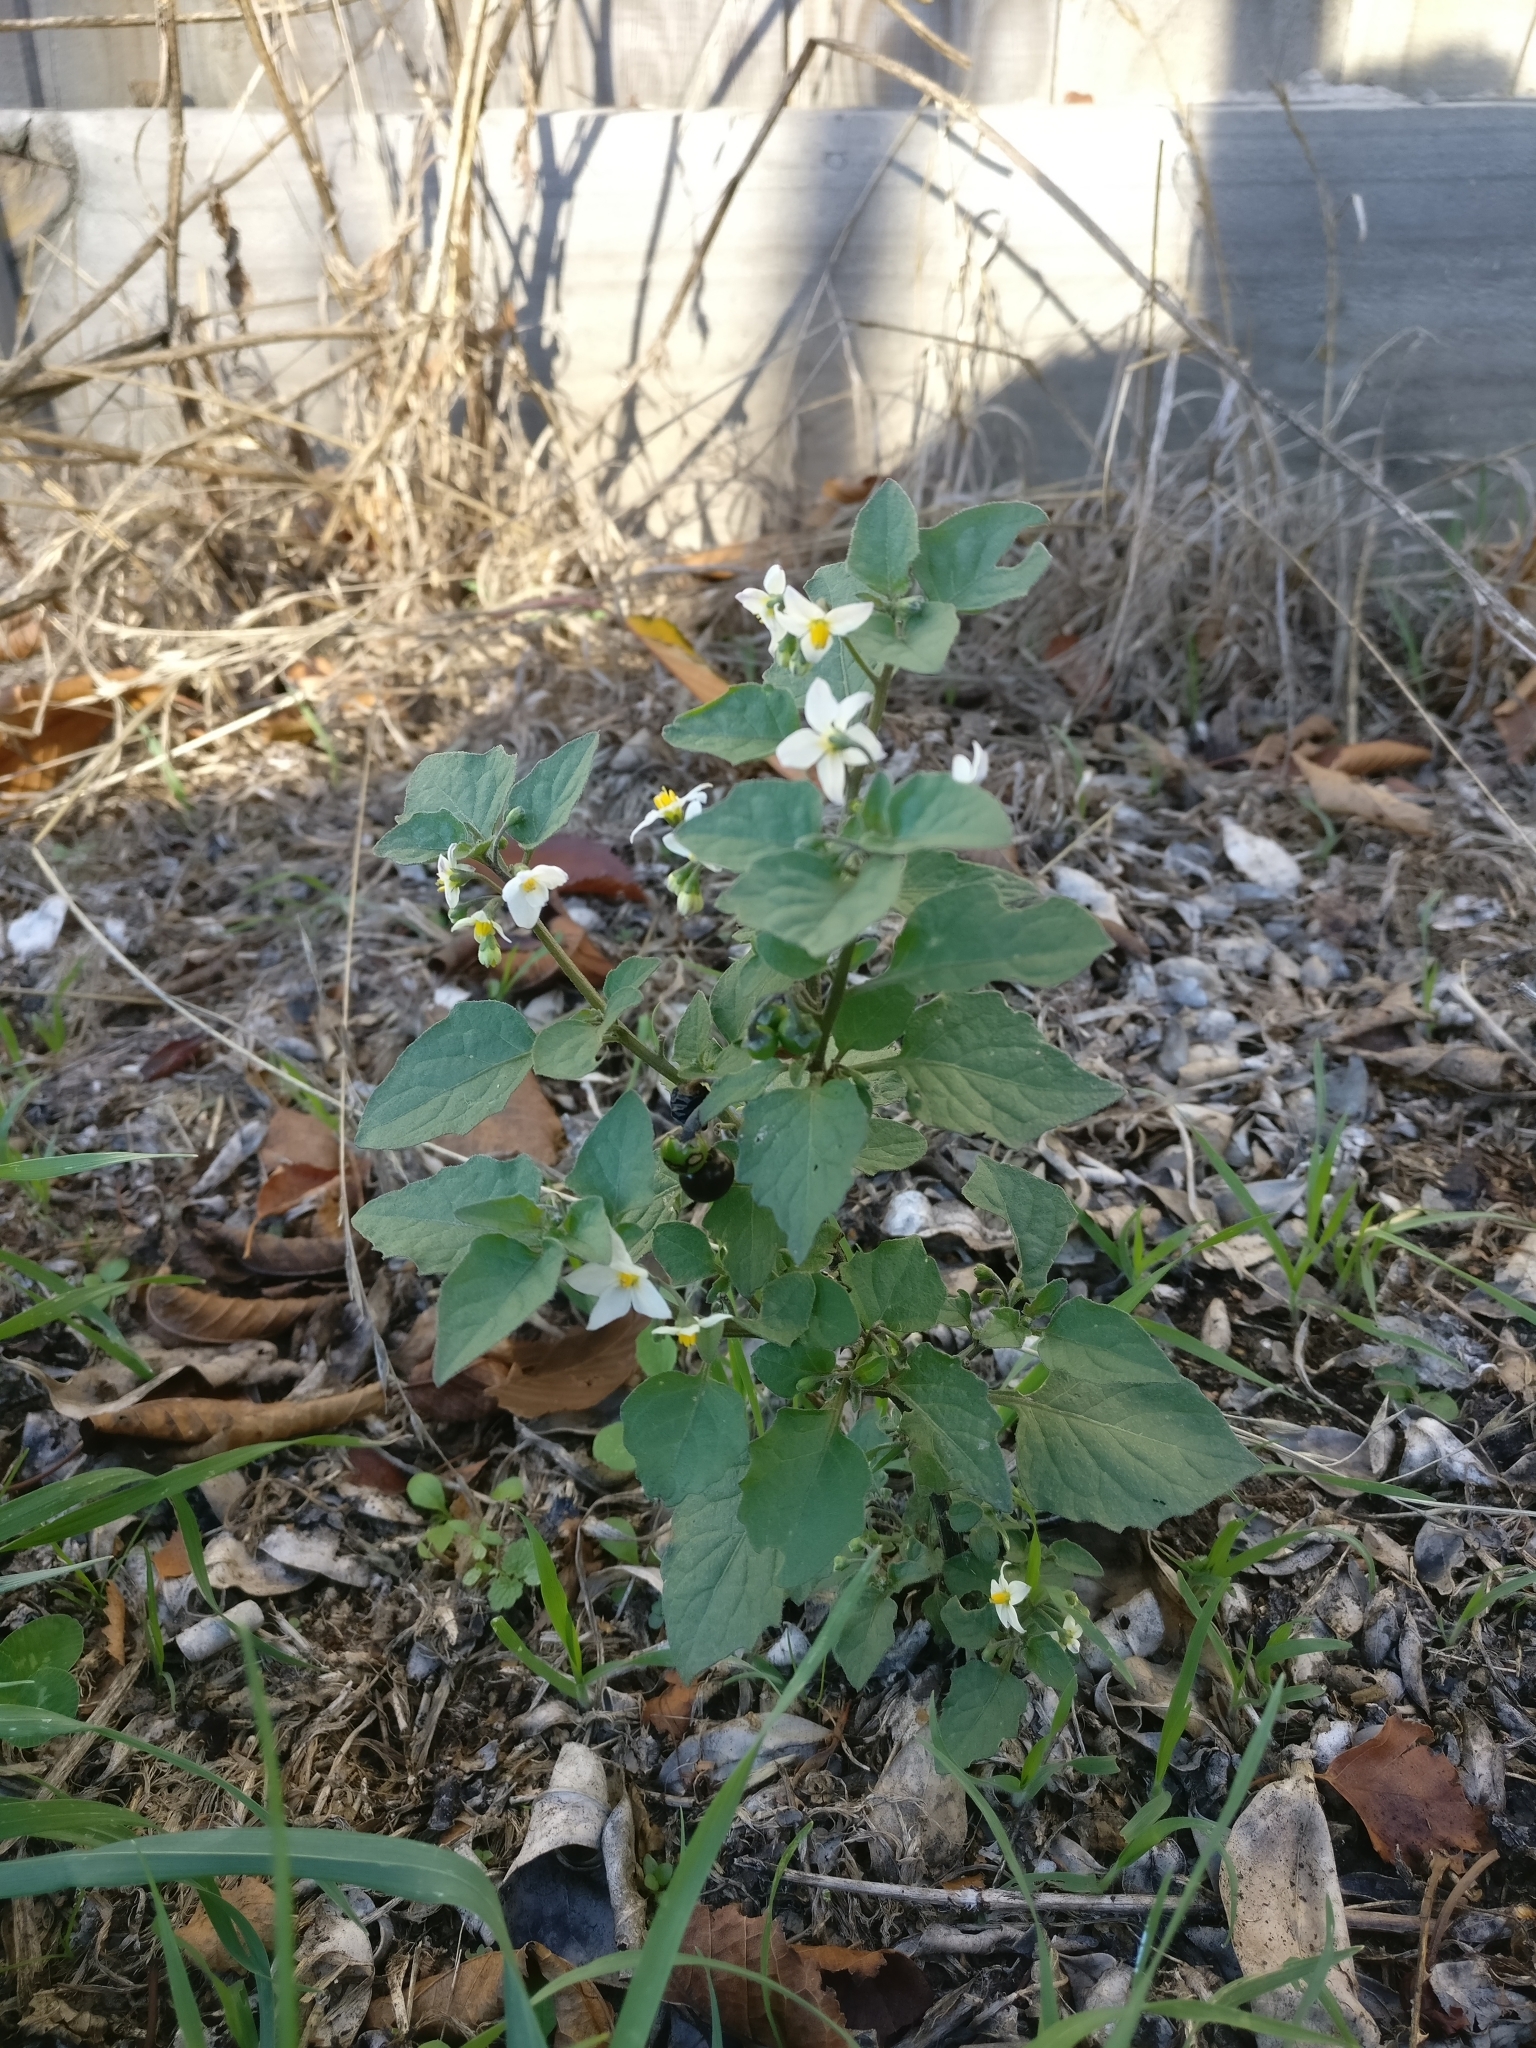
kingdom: Plantae
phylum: Tracheophyta
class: Magnoliopsida
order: Solanales
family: Solanaceae
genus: Solanum
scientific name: Solanum nigrum
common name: Black nightshade
